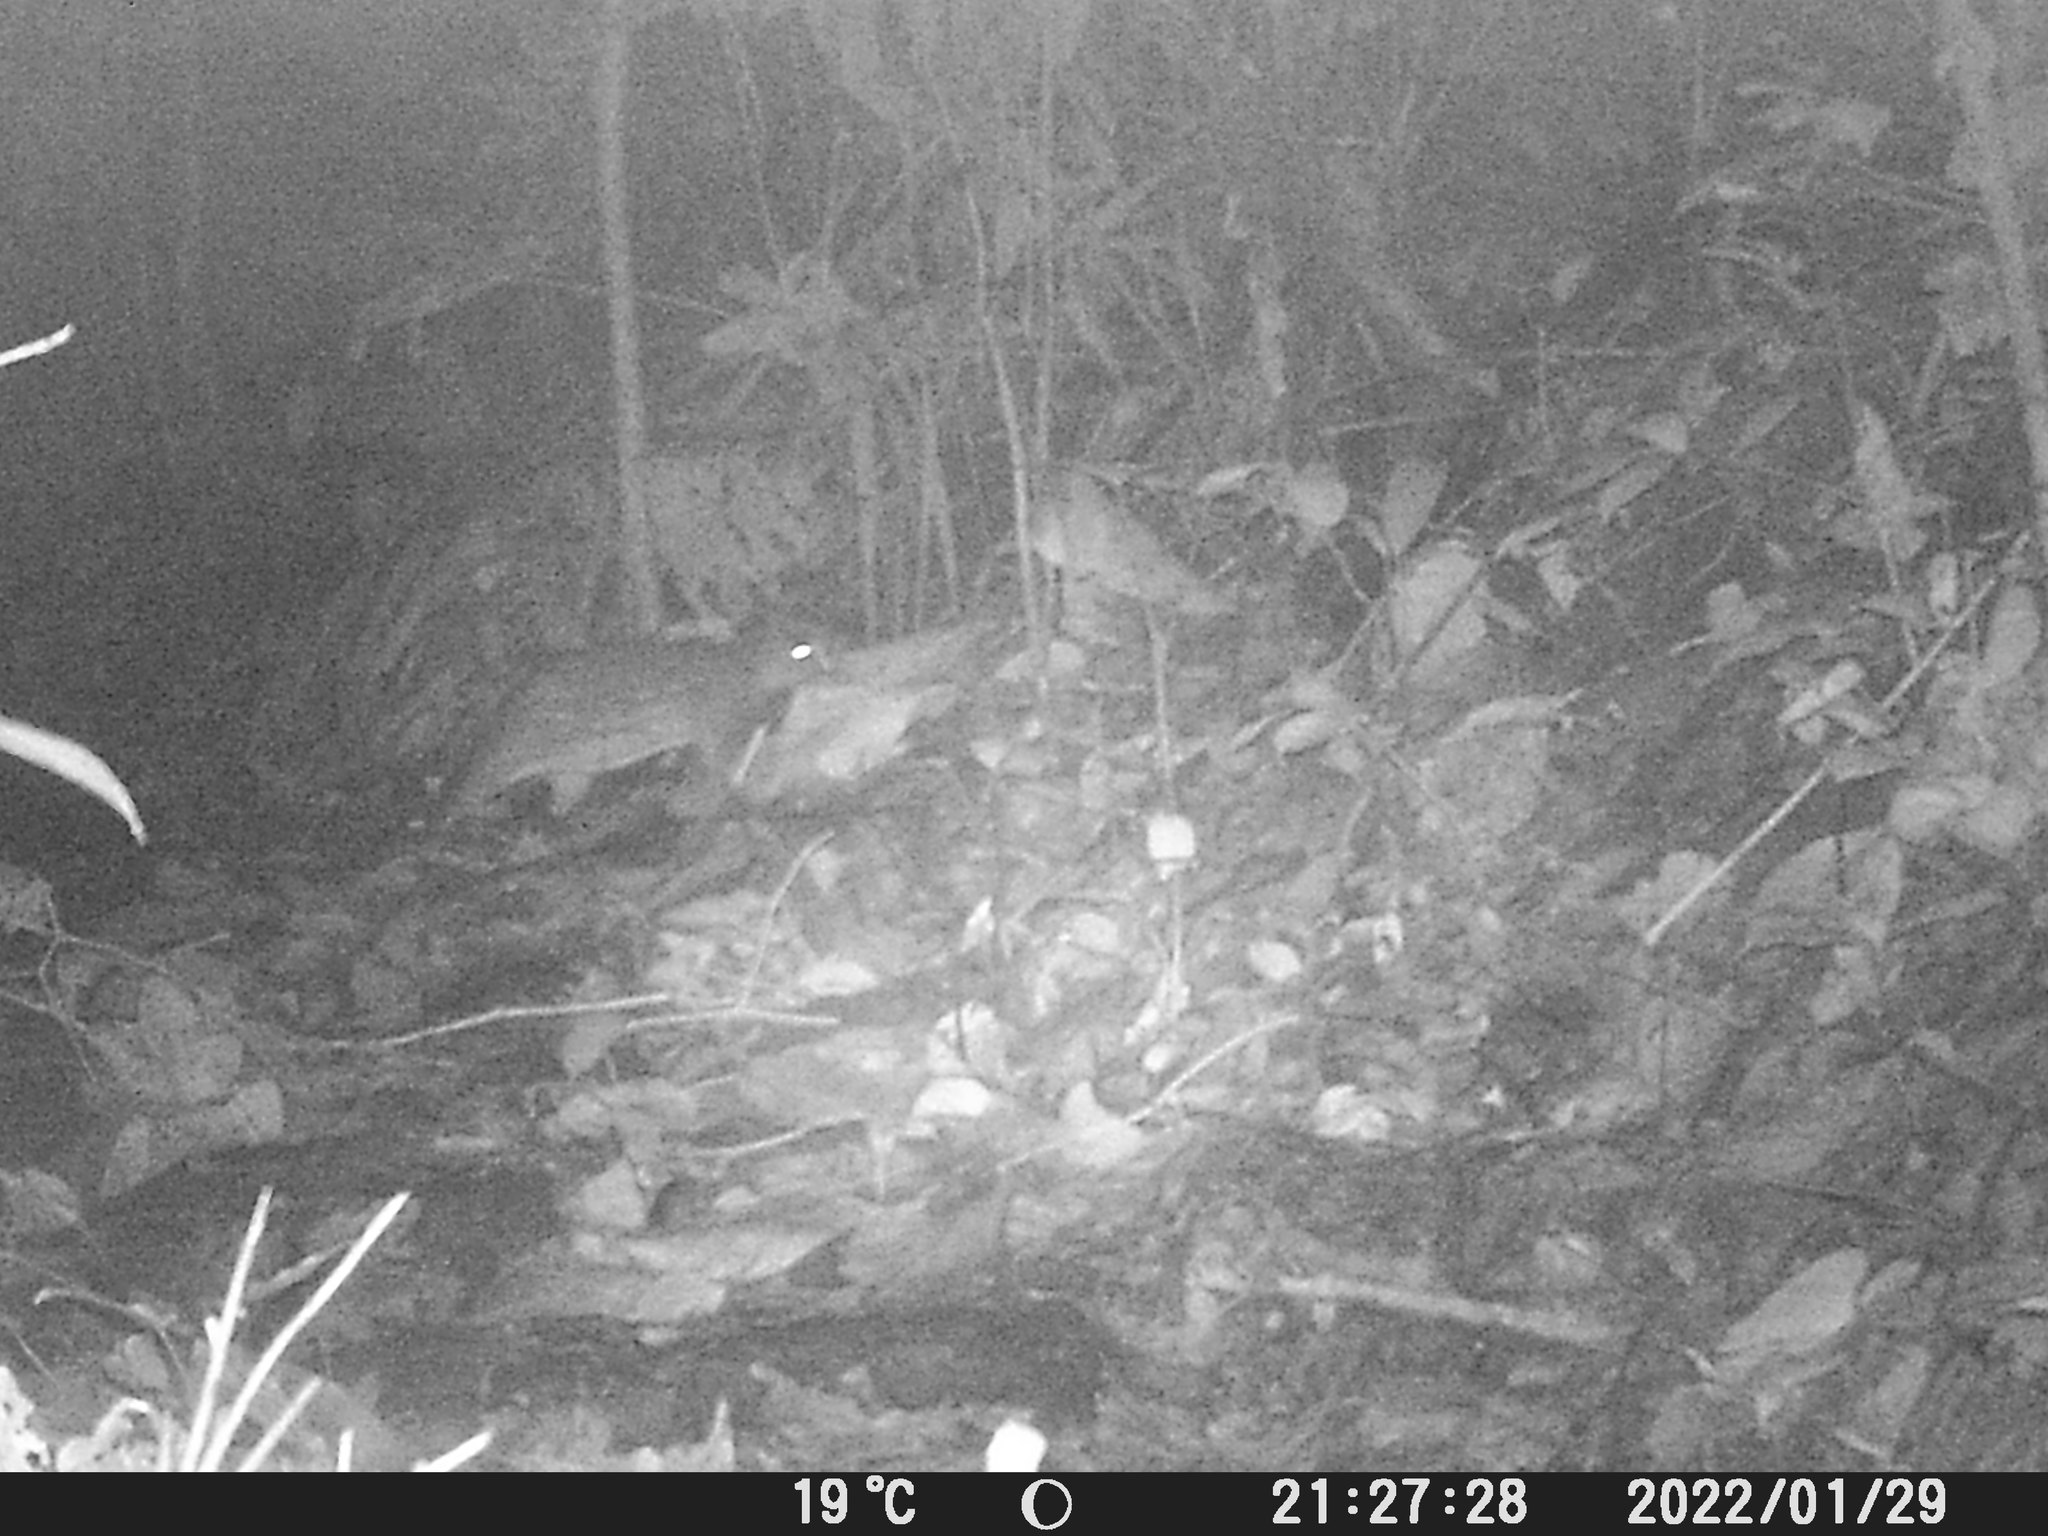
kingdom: Animalia
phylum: Chordata
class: Mammalia
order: Rodentia
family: Cuniculidae
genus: Cuniculus
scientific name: Cuniculus paca
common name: Lowland paca
